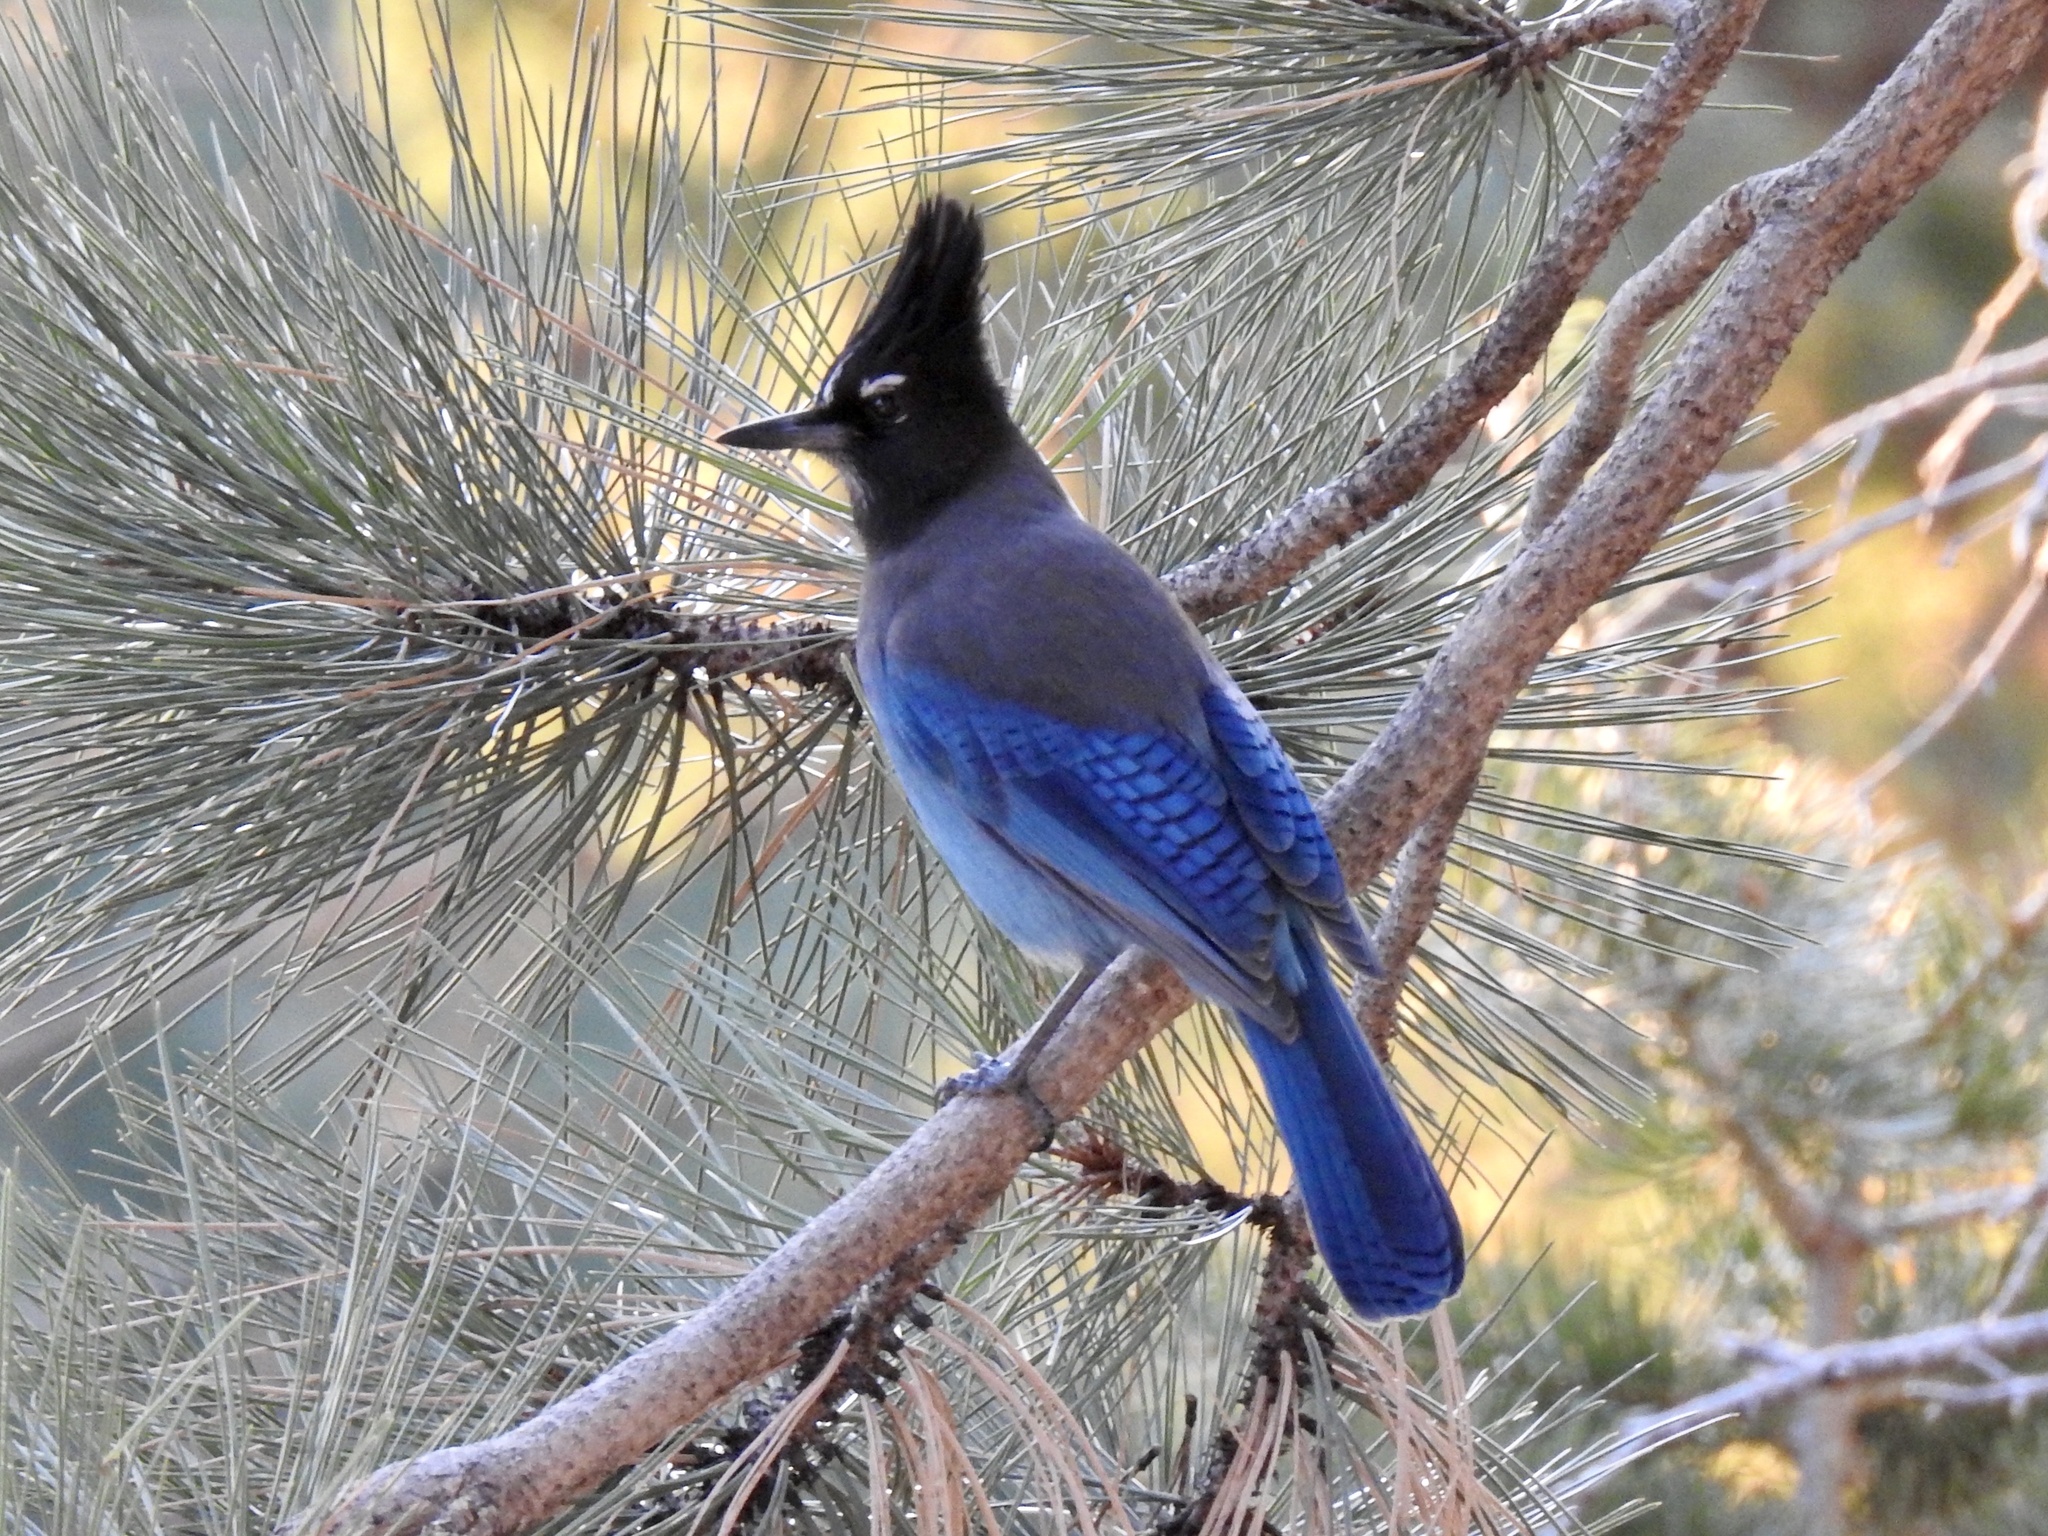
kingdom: Animalia
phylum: Chordata
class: Aves
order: Passeriformes
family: Corvidae
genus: Cyanocitta
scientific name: Cyanocitta stelleri
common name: Steller's jay
